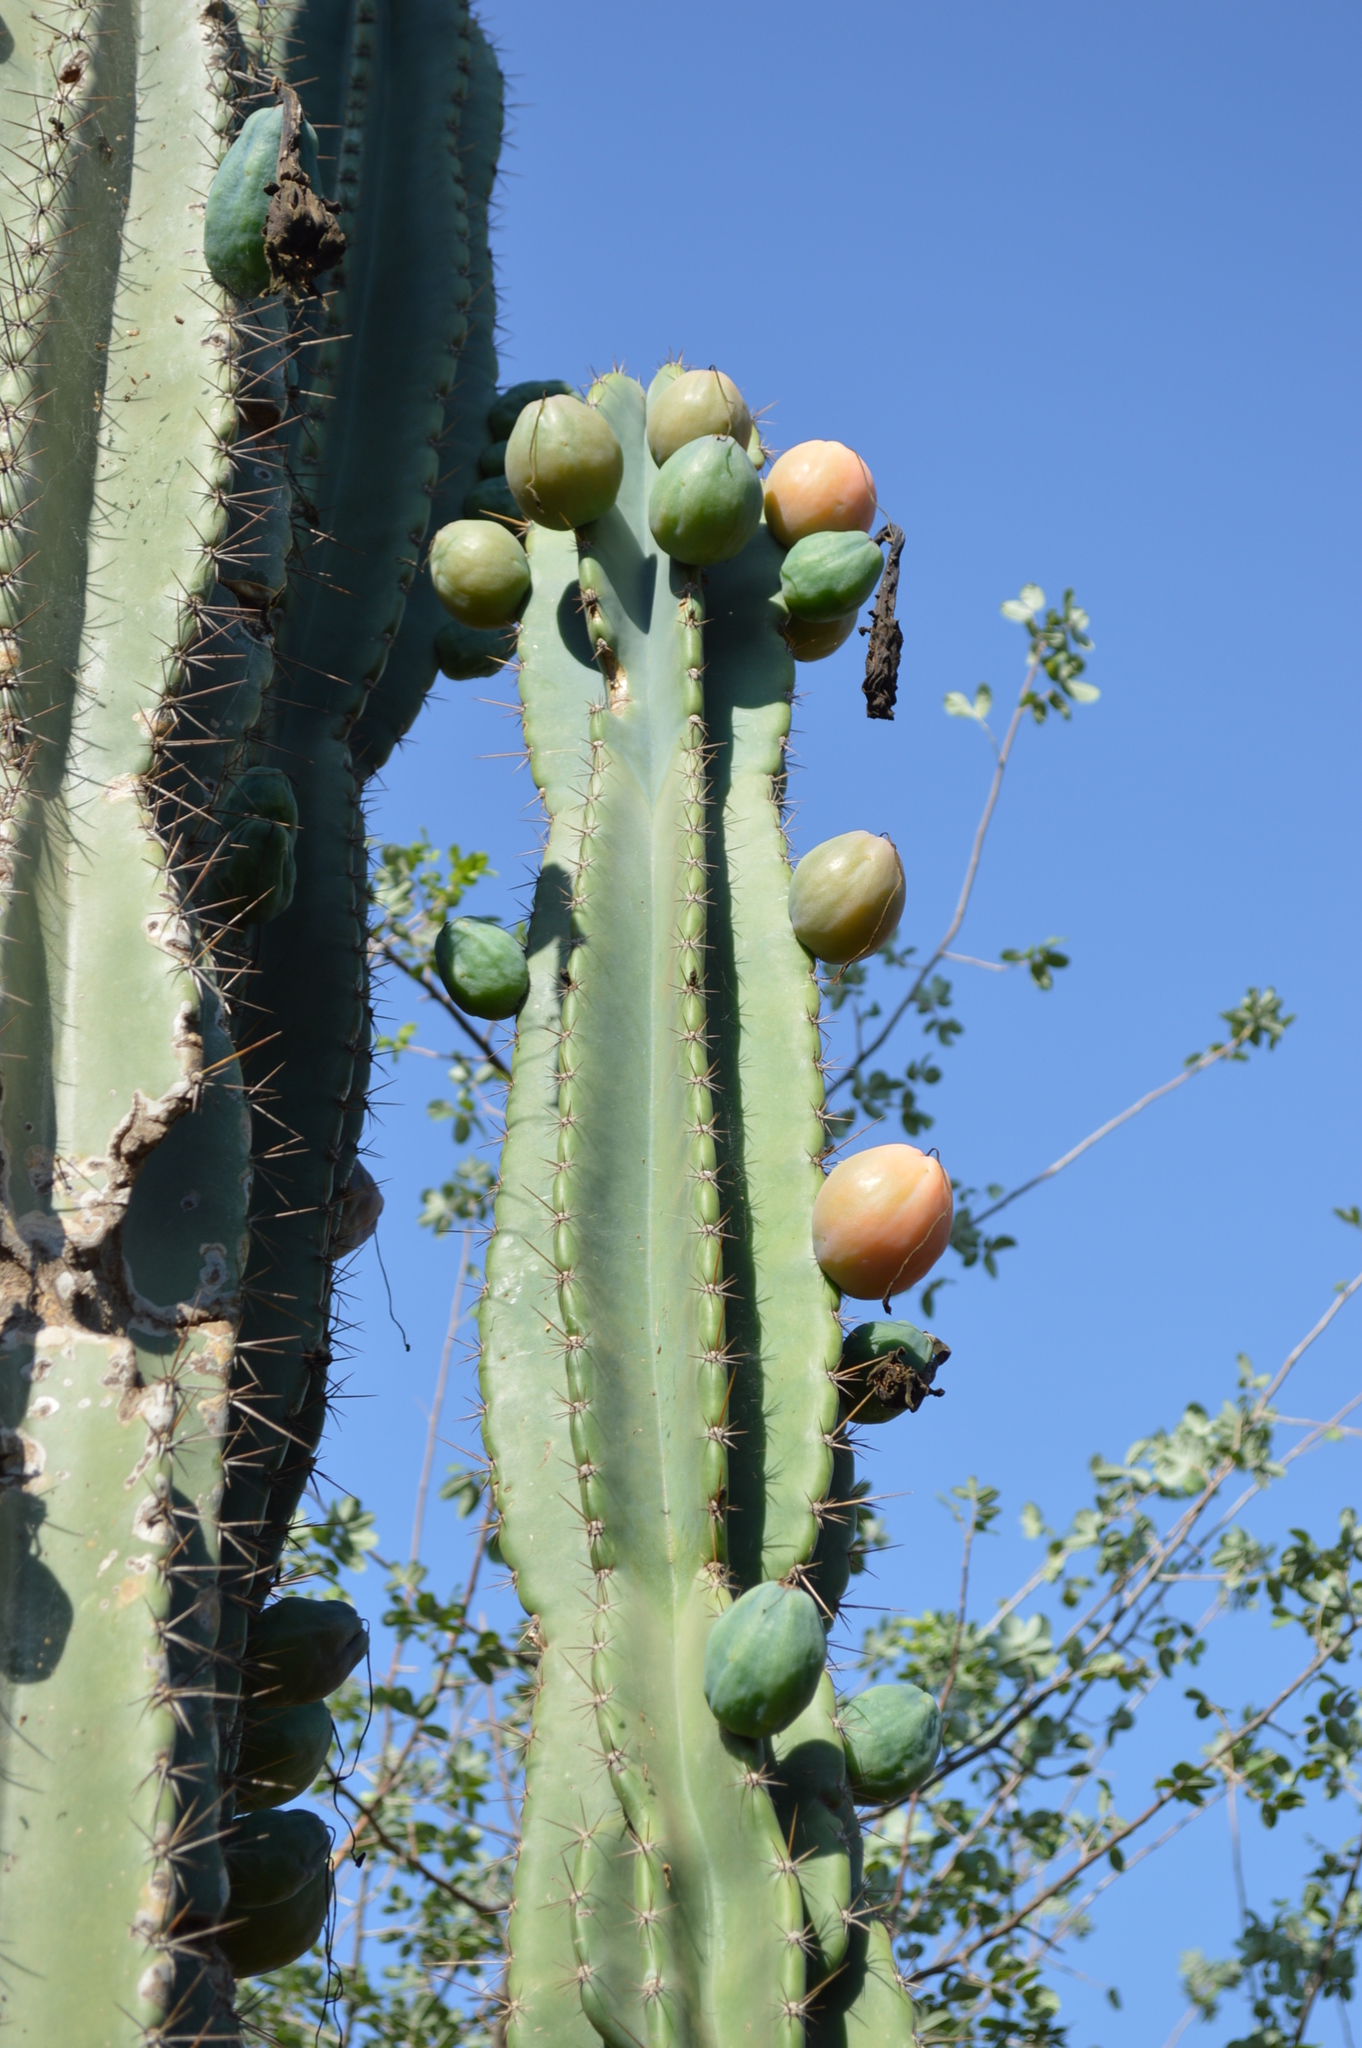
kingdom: Plantae
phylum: Tracheophyta
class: Magnoliopsida
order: Caryophyllales
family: Cactaceae
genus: Cereus
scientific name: Cereus jamacaru
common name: Queen-of-the-night
